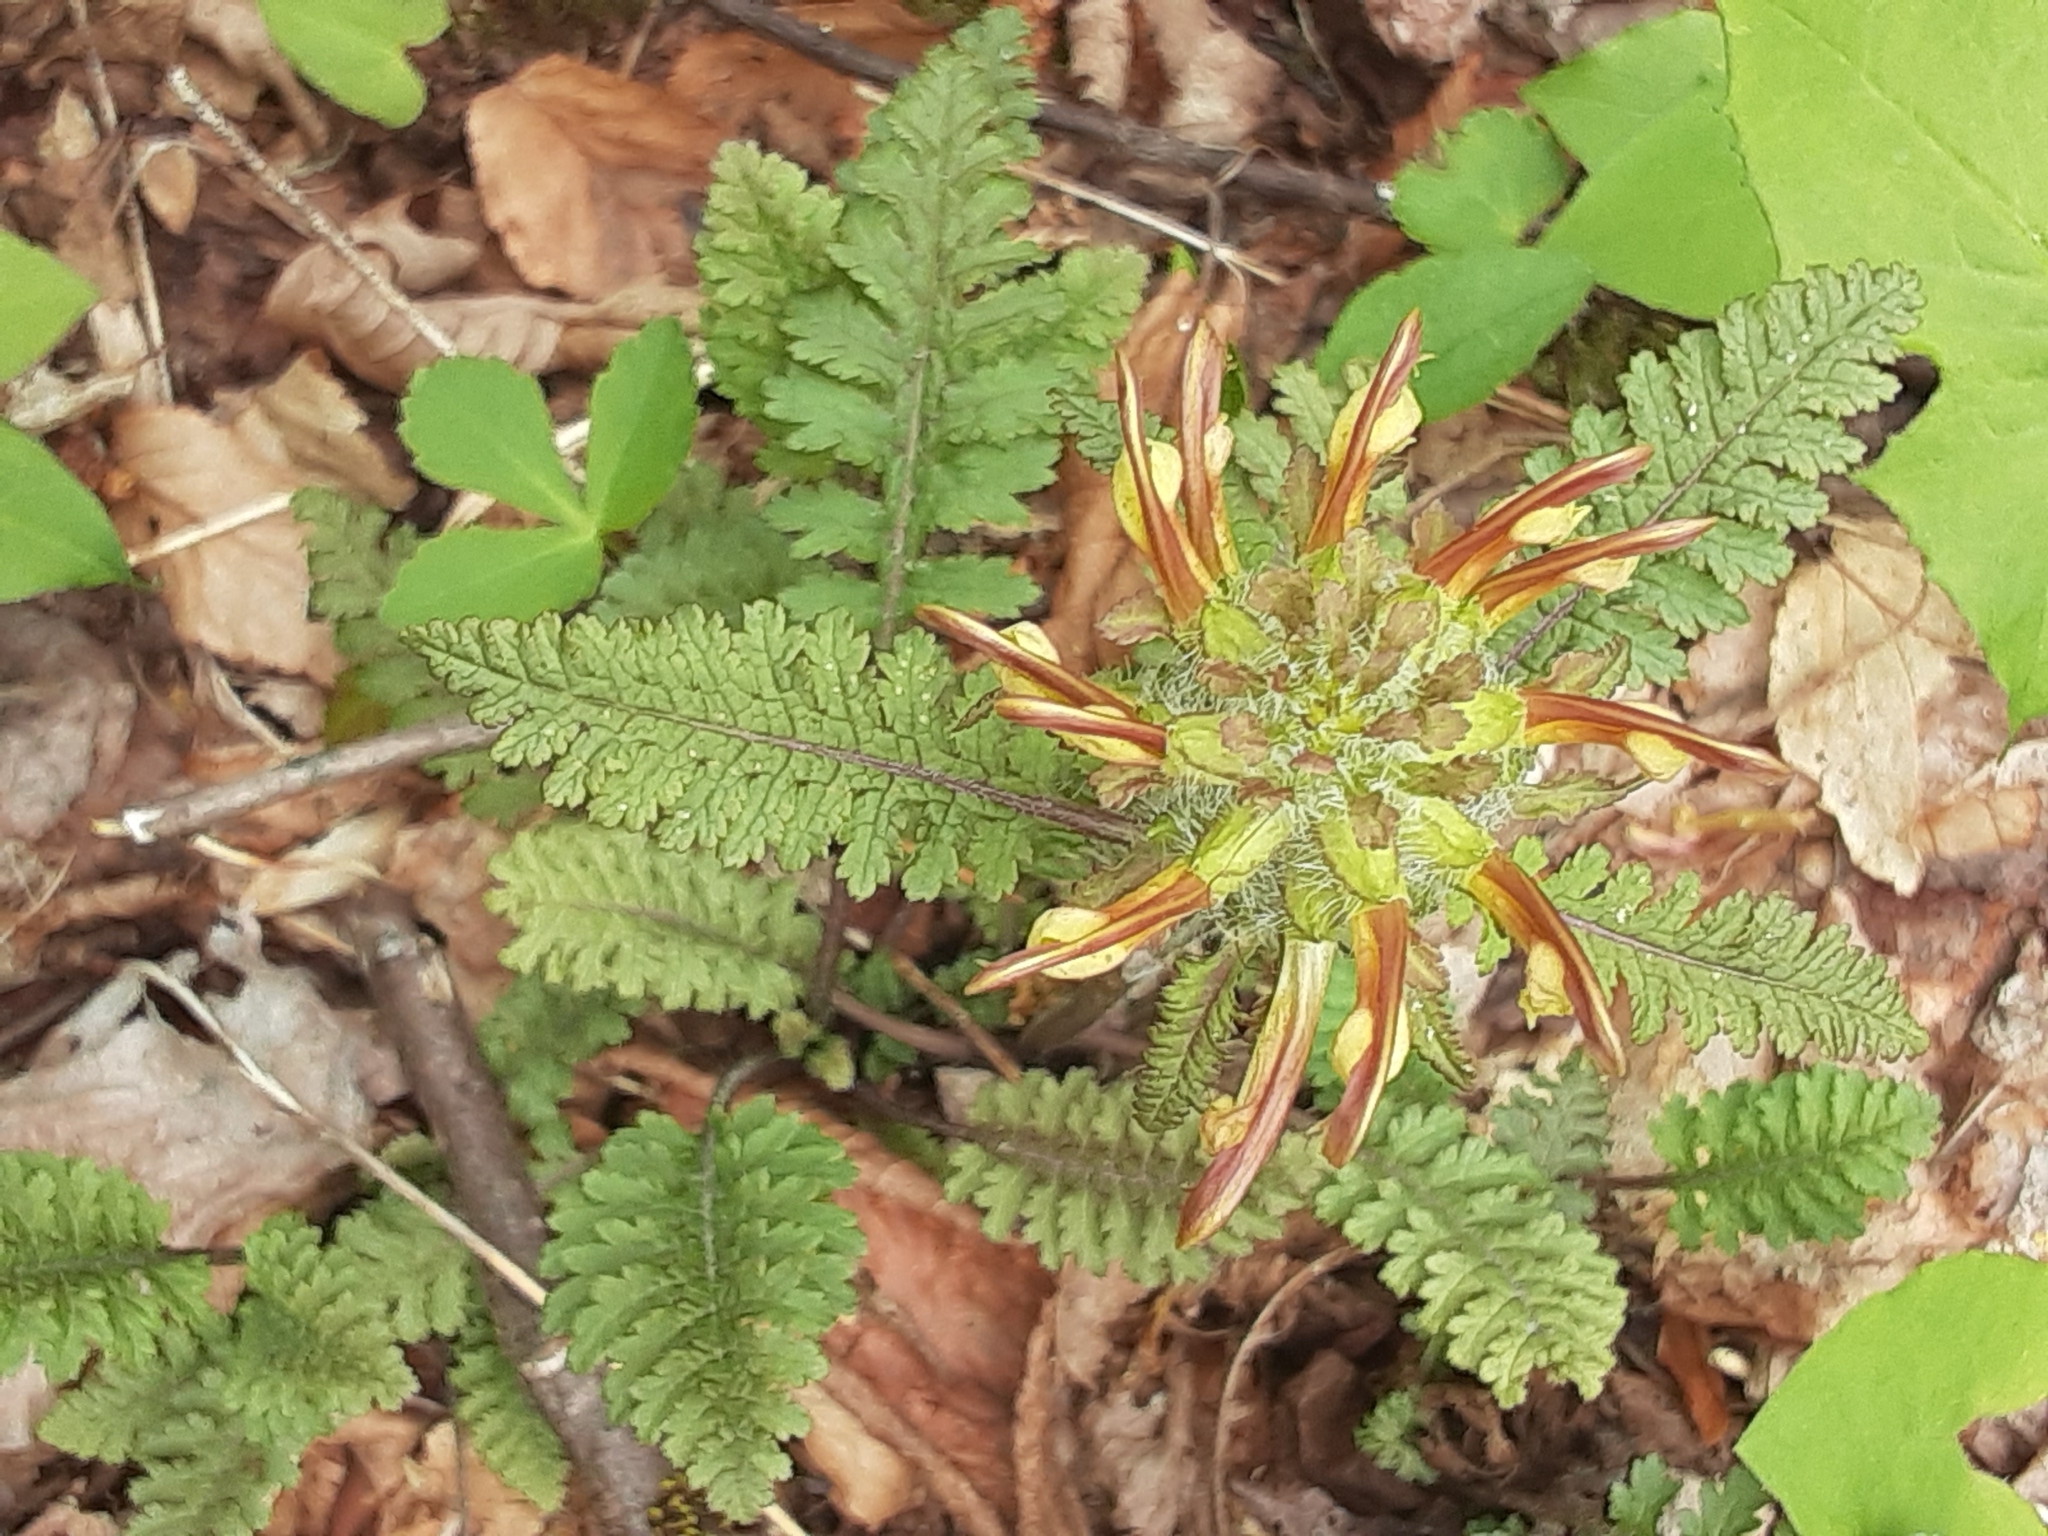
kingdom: Plantae
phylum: Tracheophyta
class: Magnoliopsida
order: Lamiales
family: Orobanchaceae
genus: Pedicularis
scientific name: Pedicularis canadensis
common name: Early lousewort
